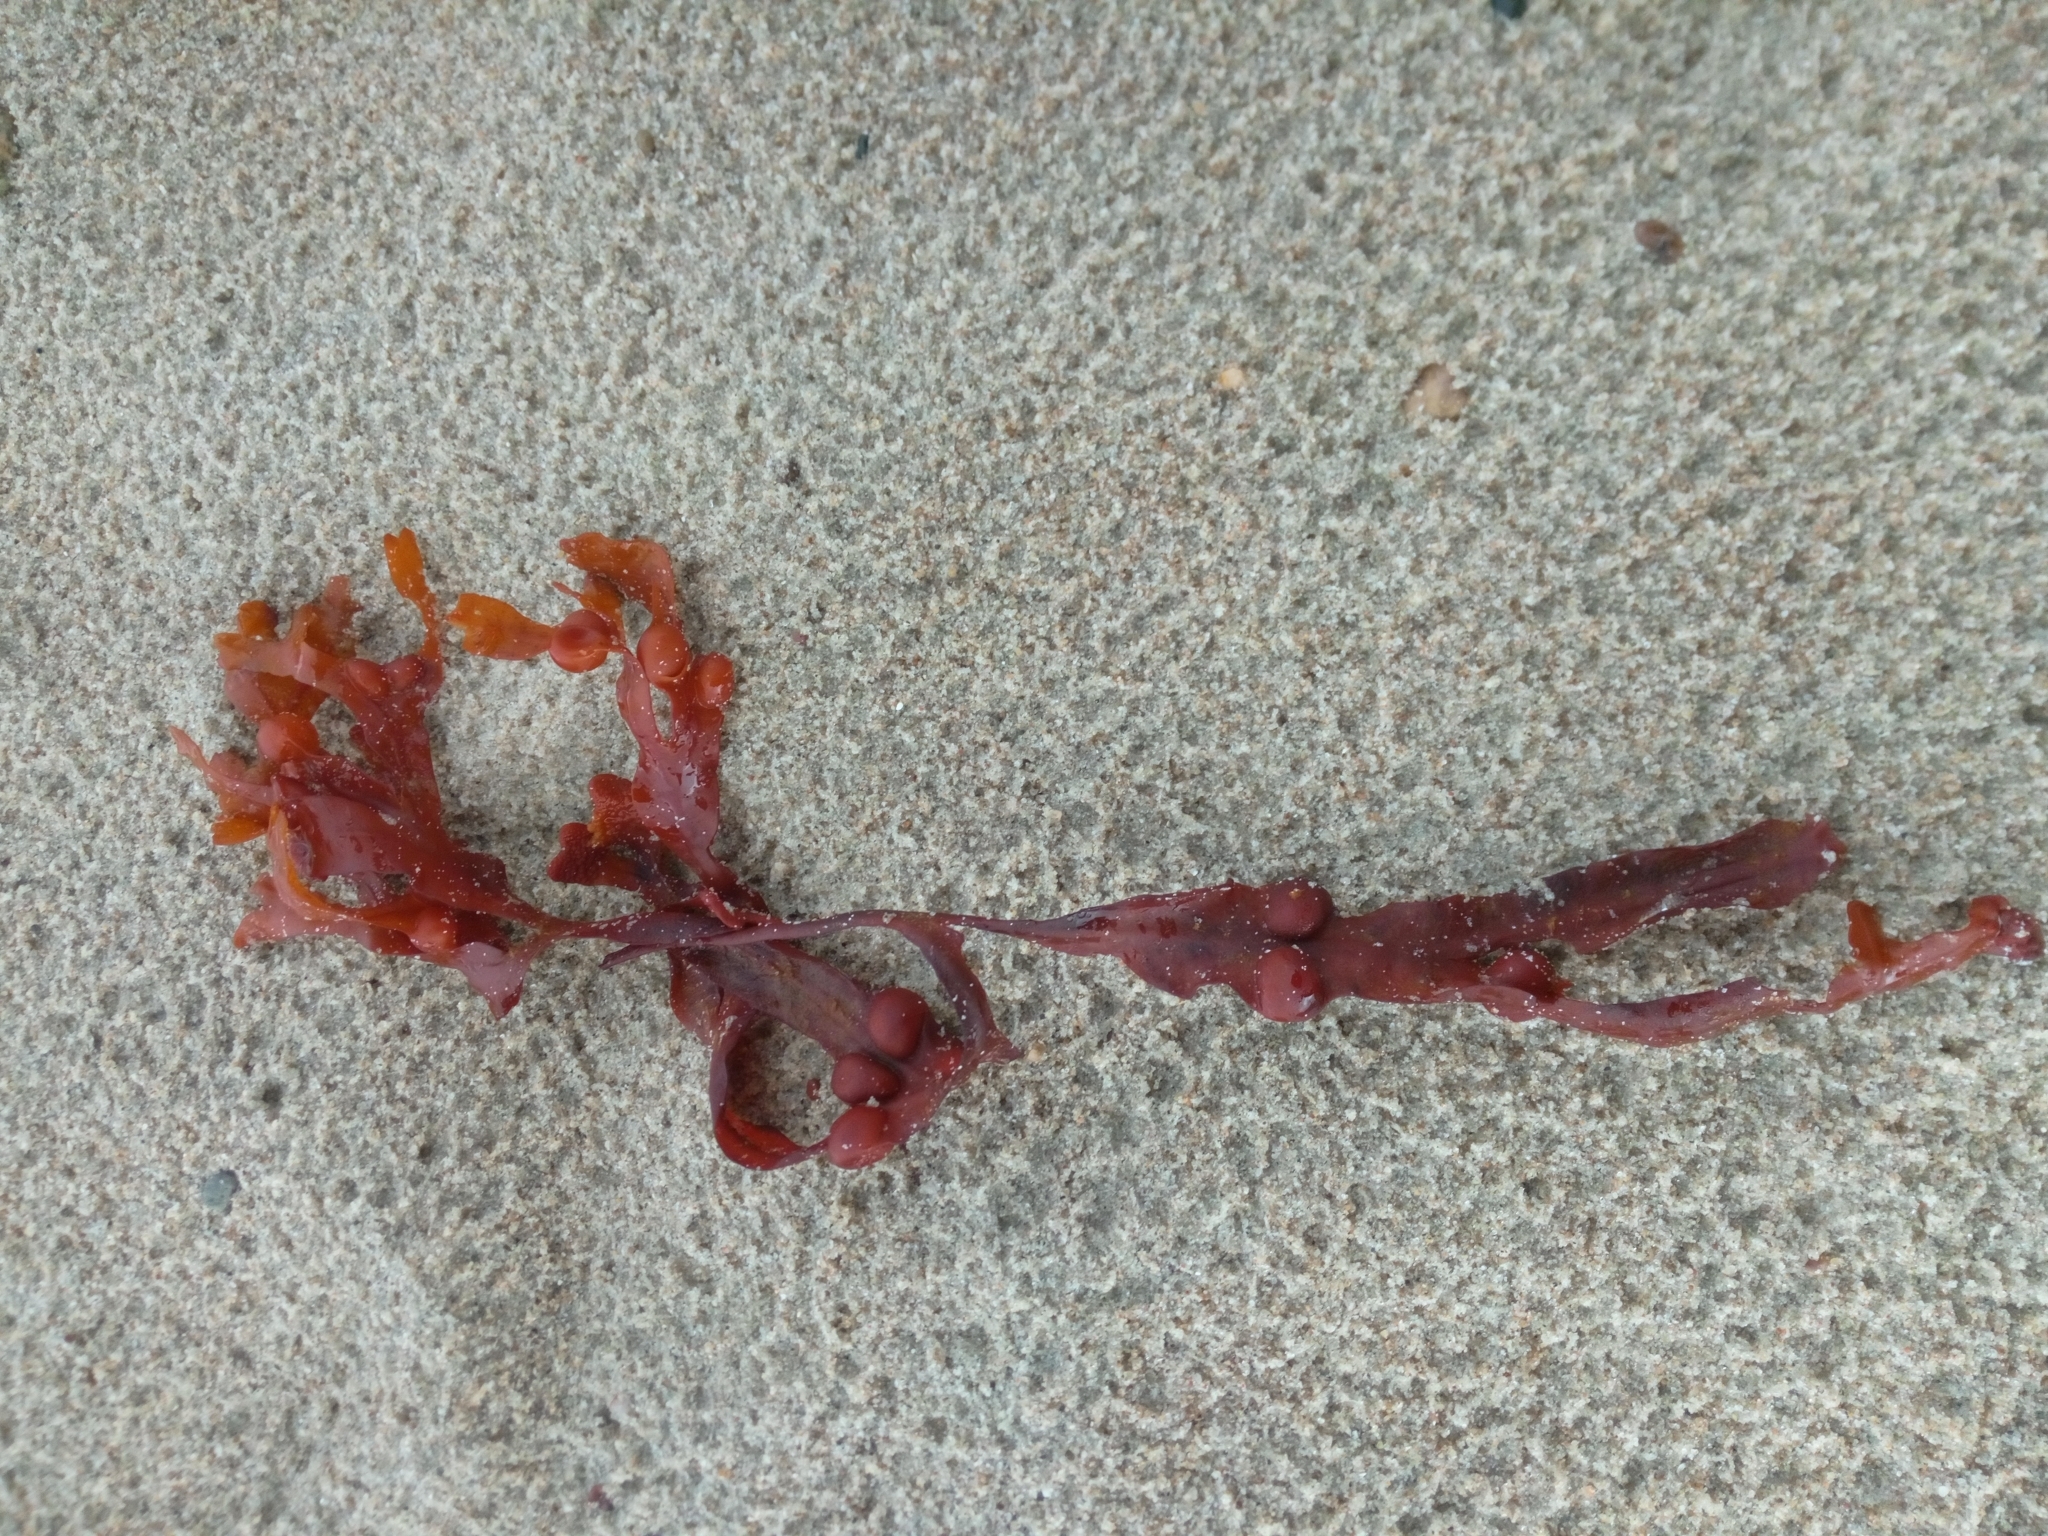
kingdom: Chromista
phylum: Ochrophyta
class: Phaeophyceae
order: Fucales
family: Fucaceae
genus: Fucus
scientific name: Fucus vesiculosus
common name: Bladder wrack
